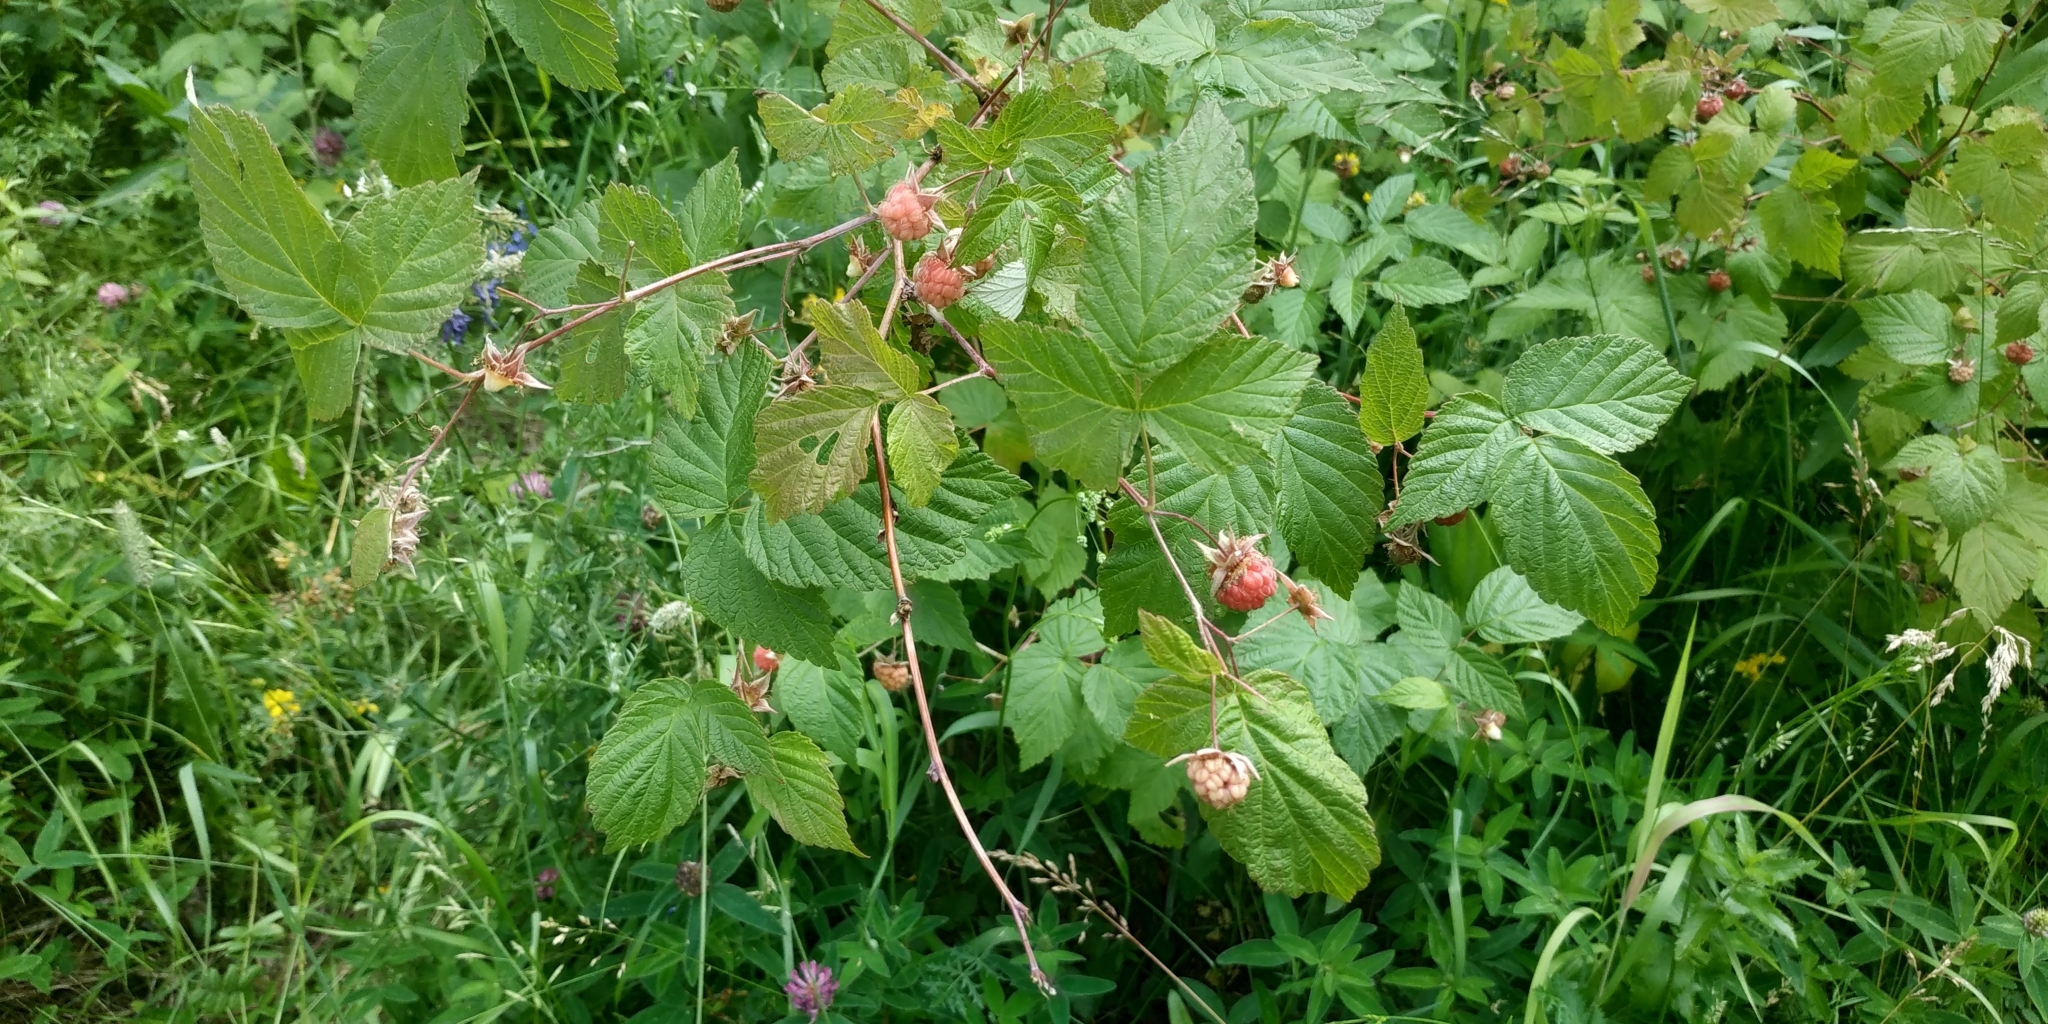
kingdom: Plantae
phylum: Tracheophyta
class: Magnoliopsida
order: Rosales
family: Rosaceae
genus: Rubus
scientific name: Rubus idaeus
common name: Raspberry
